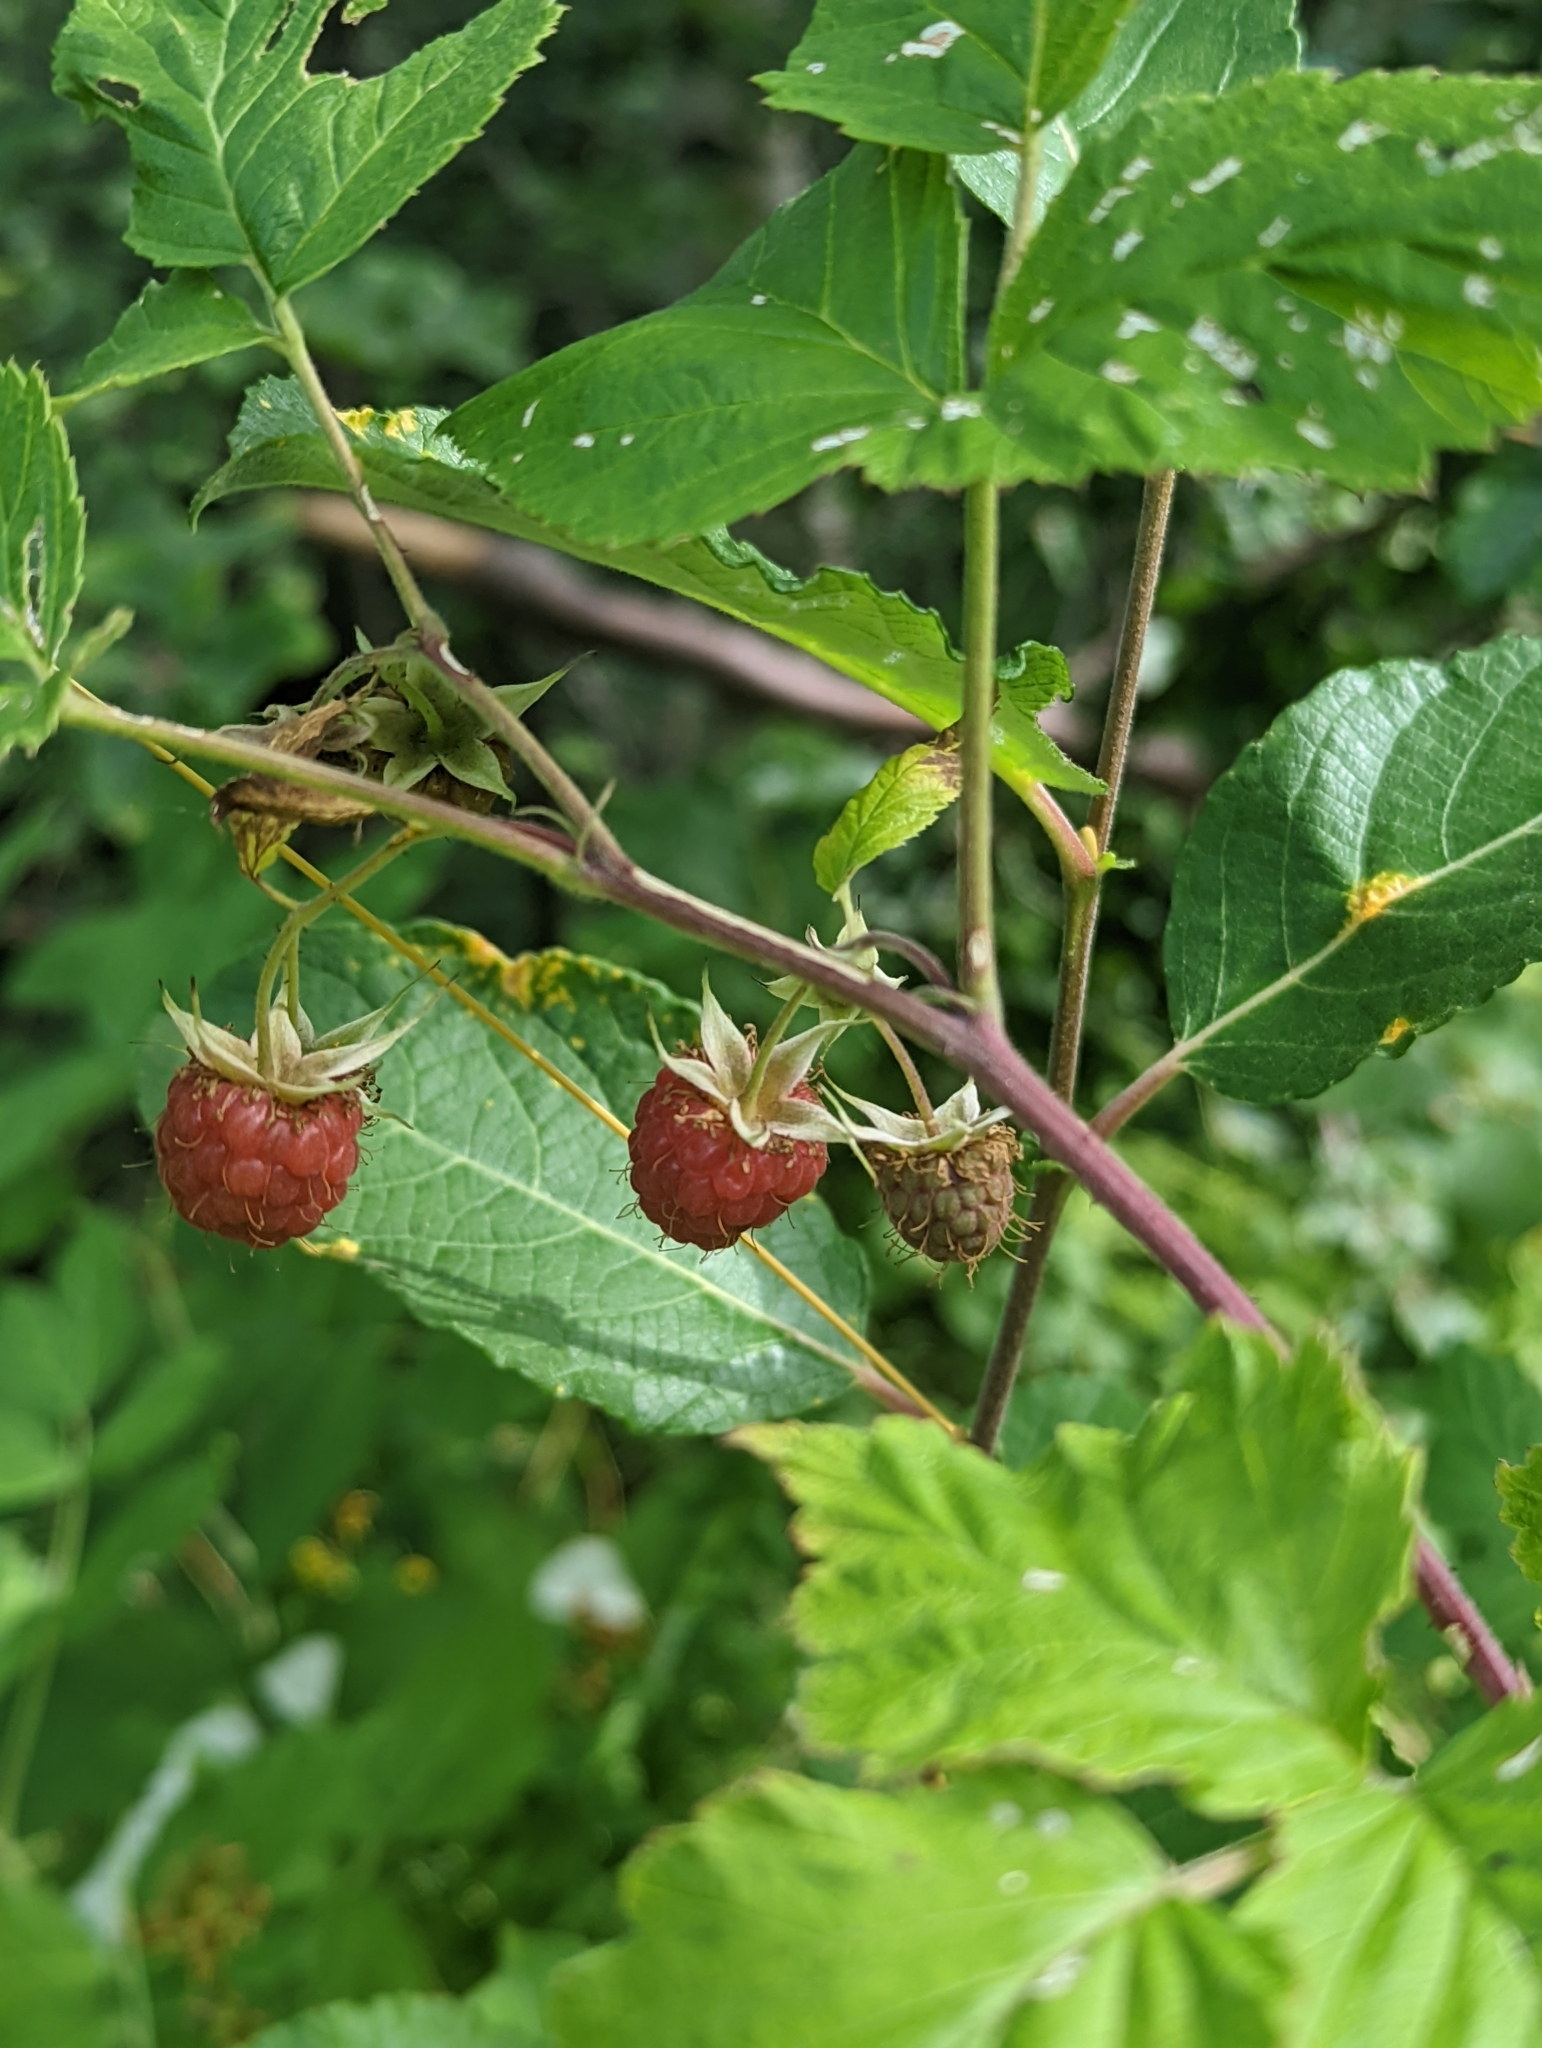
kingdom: Plantae
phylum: Tracheophyta
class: Magnoliopsida
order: Rosales
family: Rosaceae
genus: Rubus
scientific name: Rubus idaeus
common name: Raspberry
